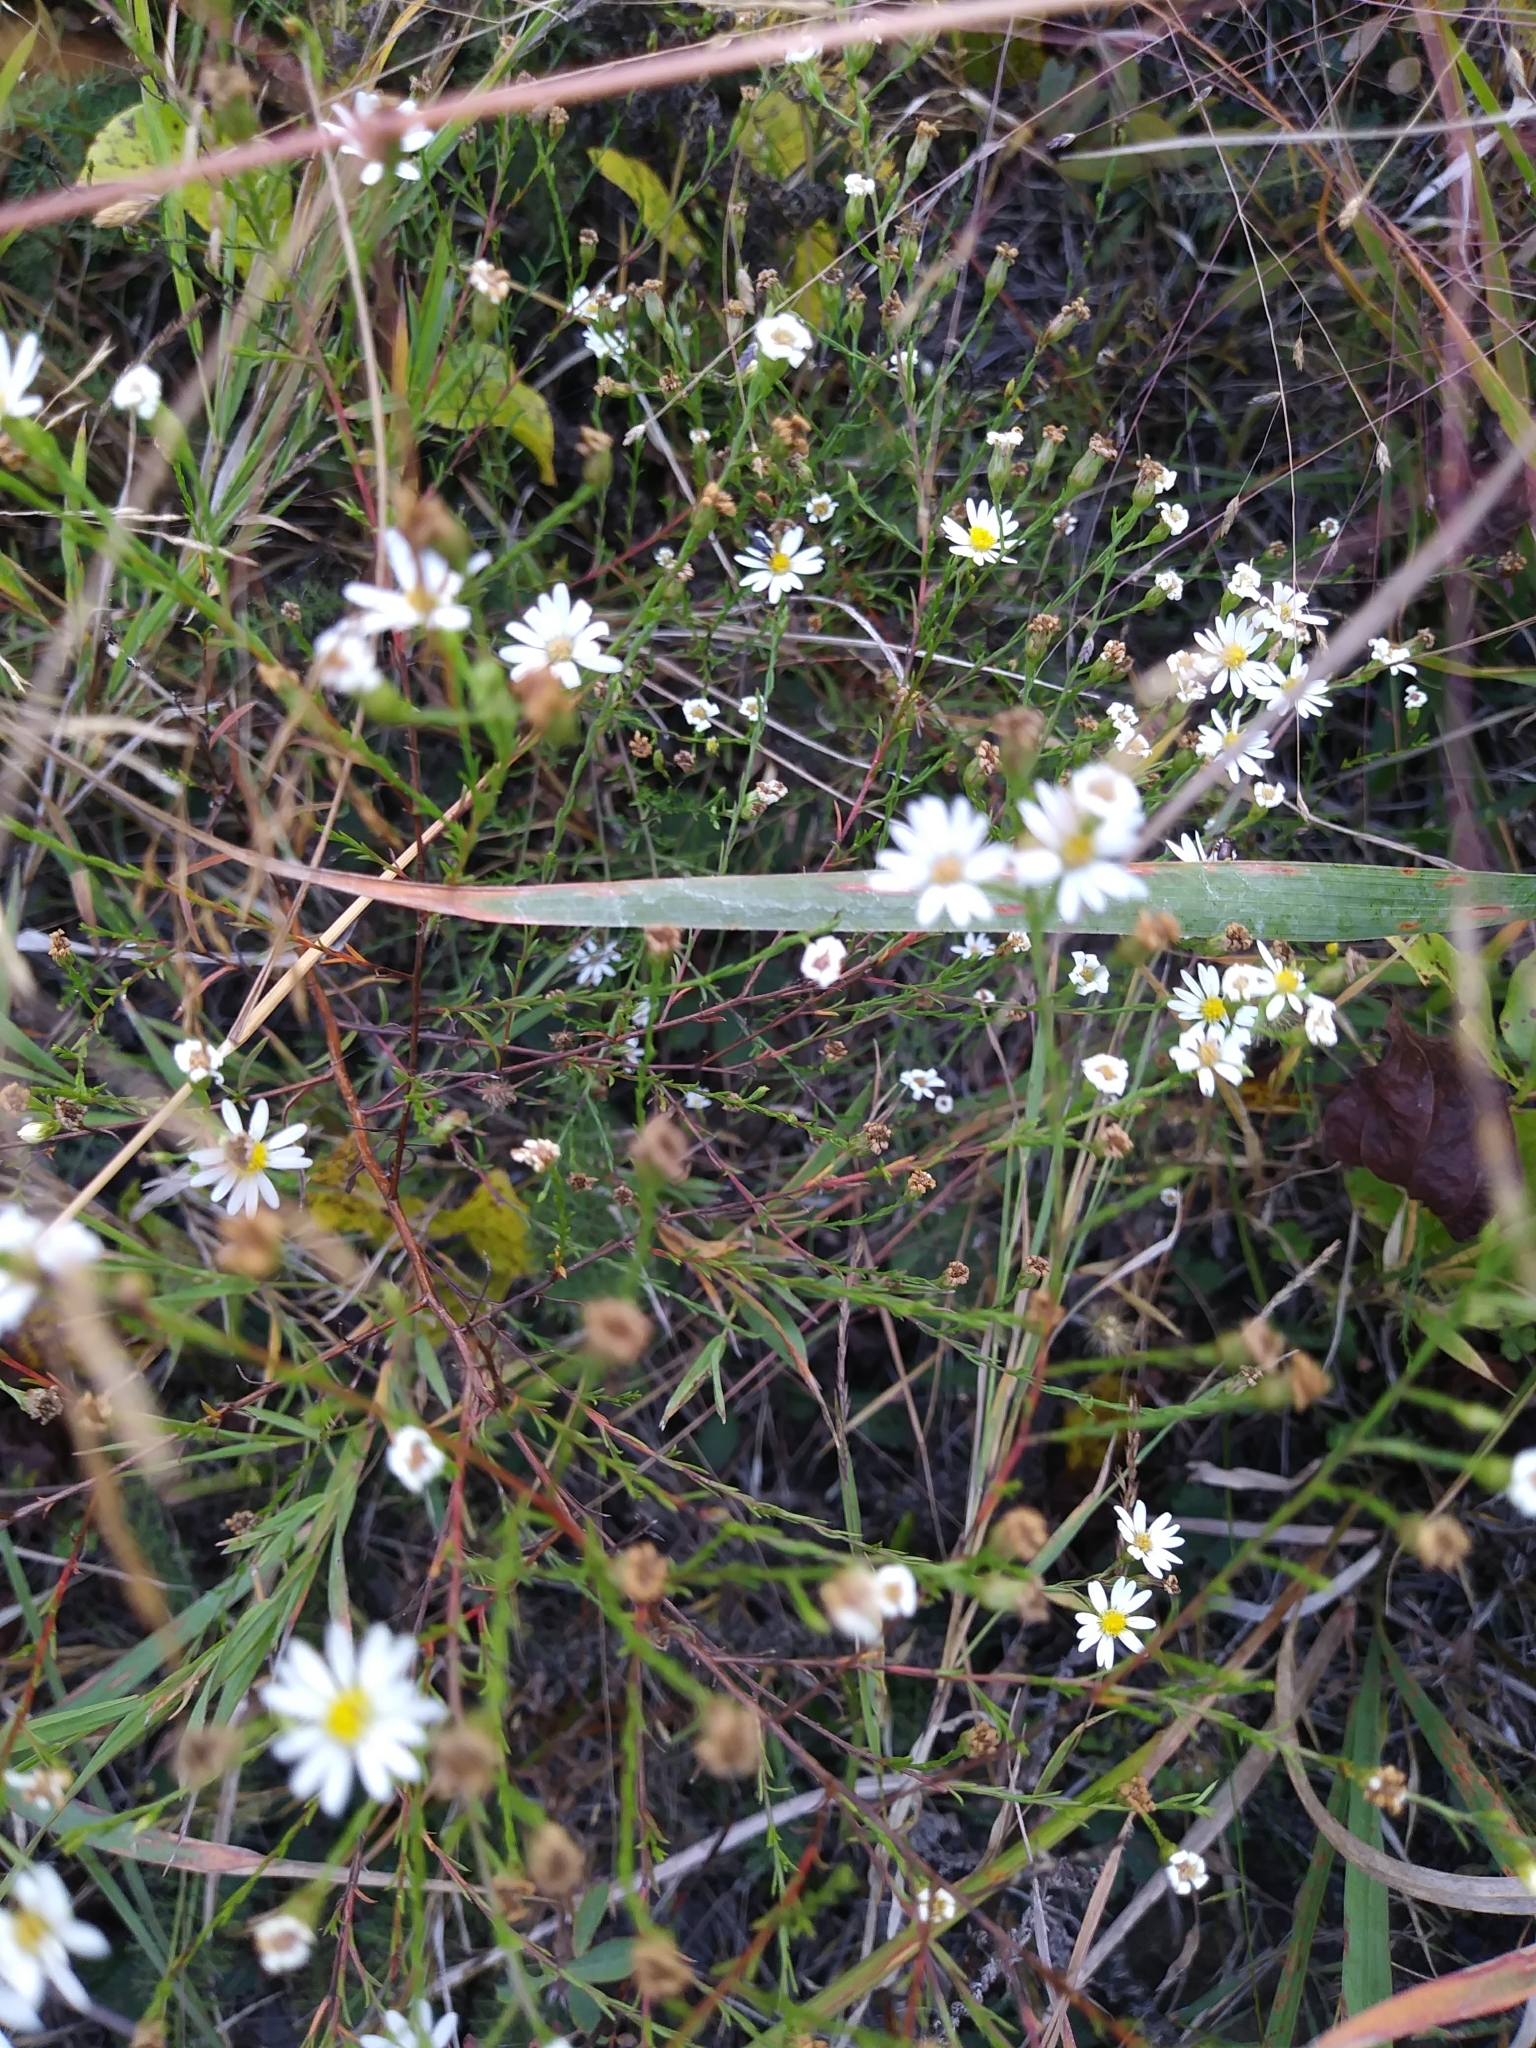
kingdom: Plantae
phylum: Tracheophyta
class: Magnoliopsida
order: Asterales
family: Asteraceae
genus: Symphyotrichum
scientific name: Symphyotrichum depauperatum
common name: Serpentine aster
